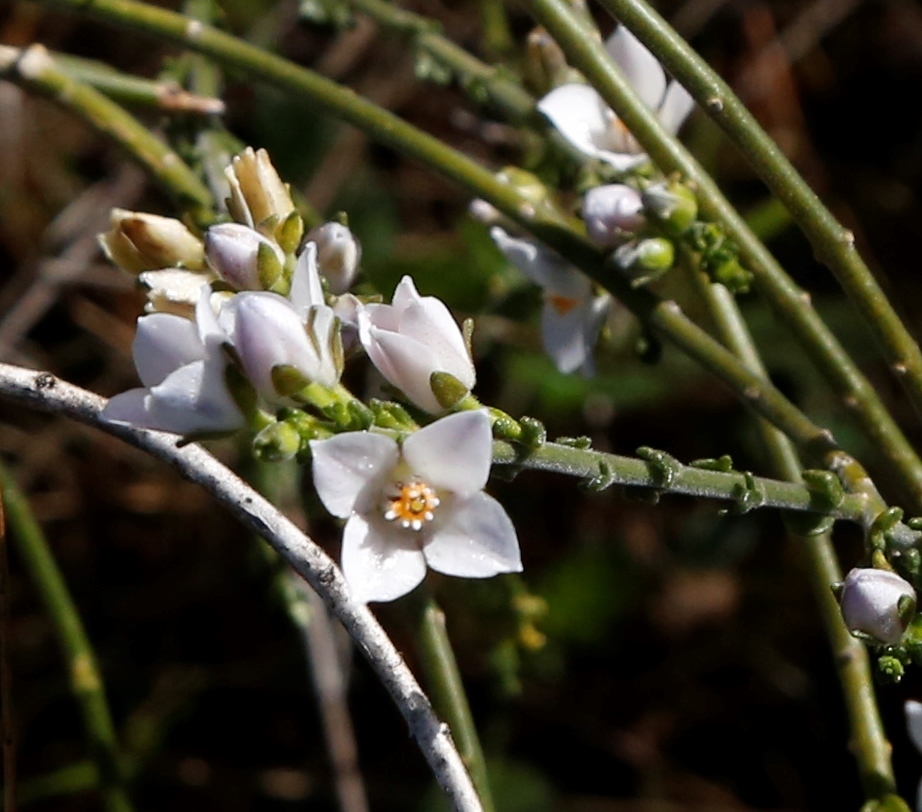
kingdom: Plantae
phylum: Tracheophyta
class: Magnoliopsida
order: Sapindales
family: Rutaceae
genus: Cyanothamnus
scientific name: Cyanothamnus coerulescens
